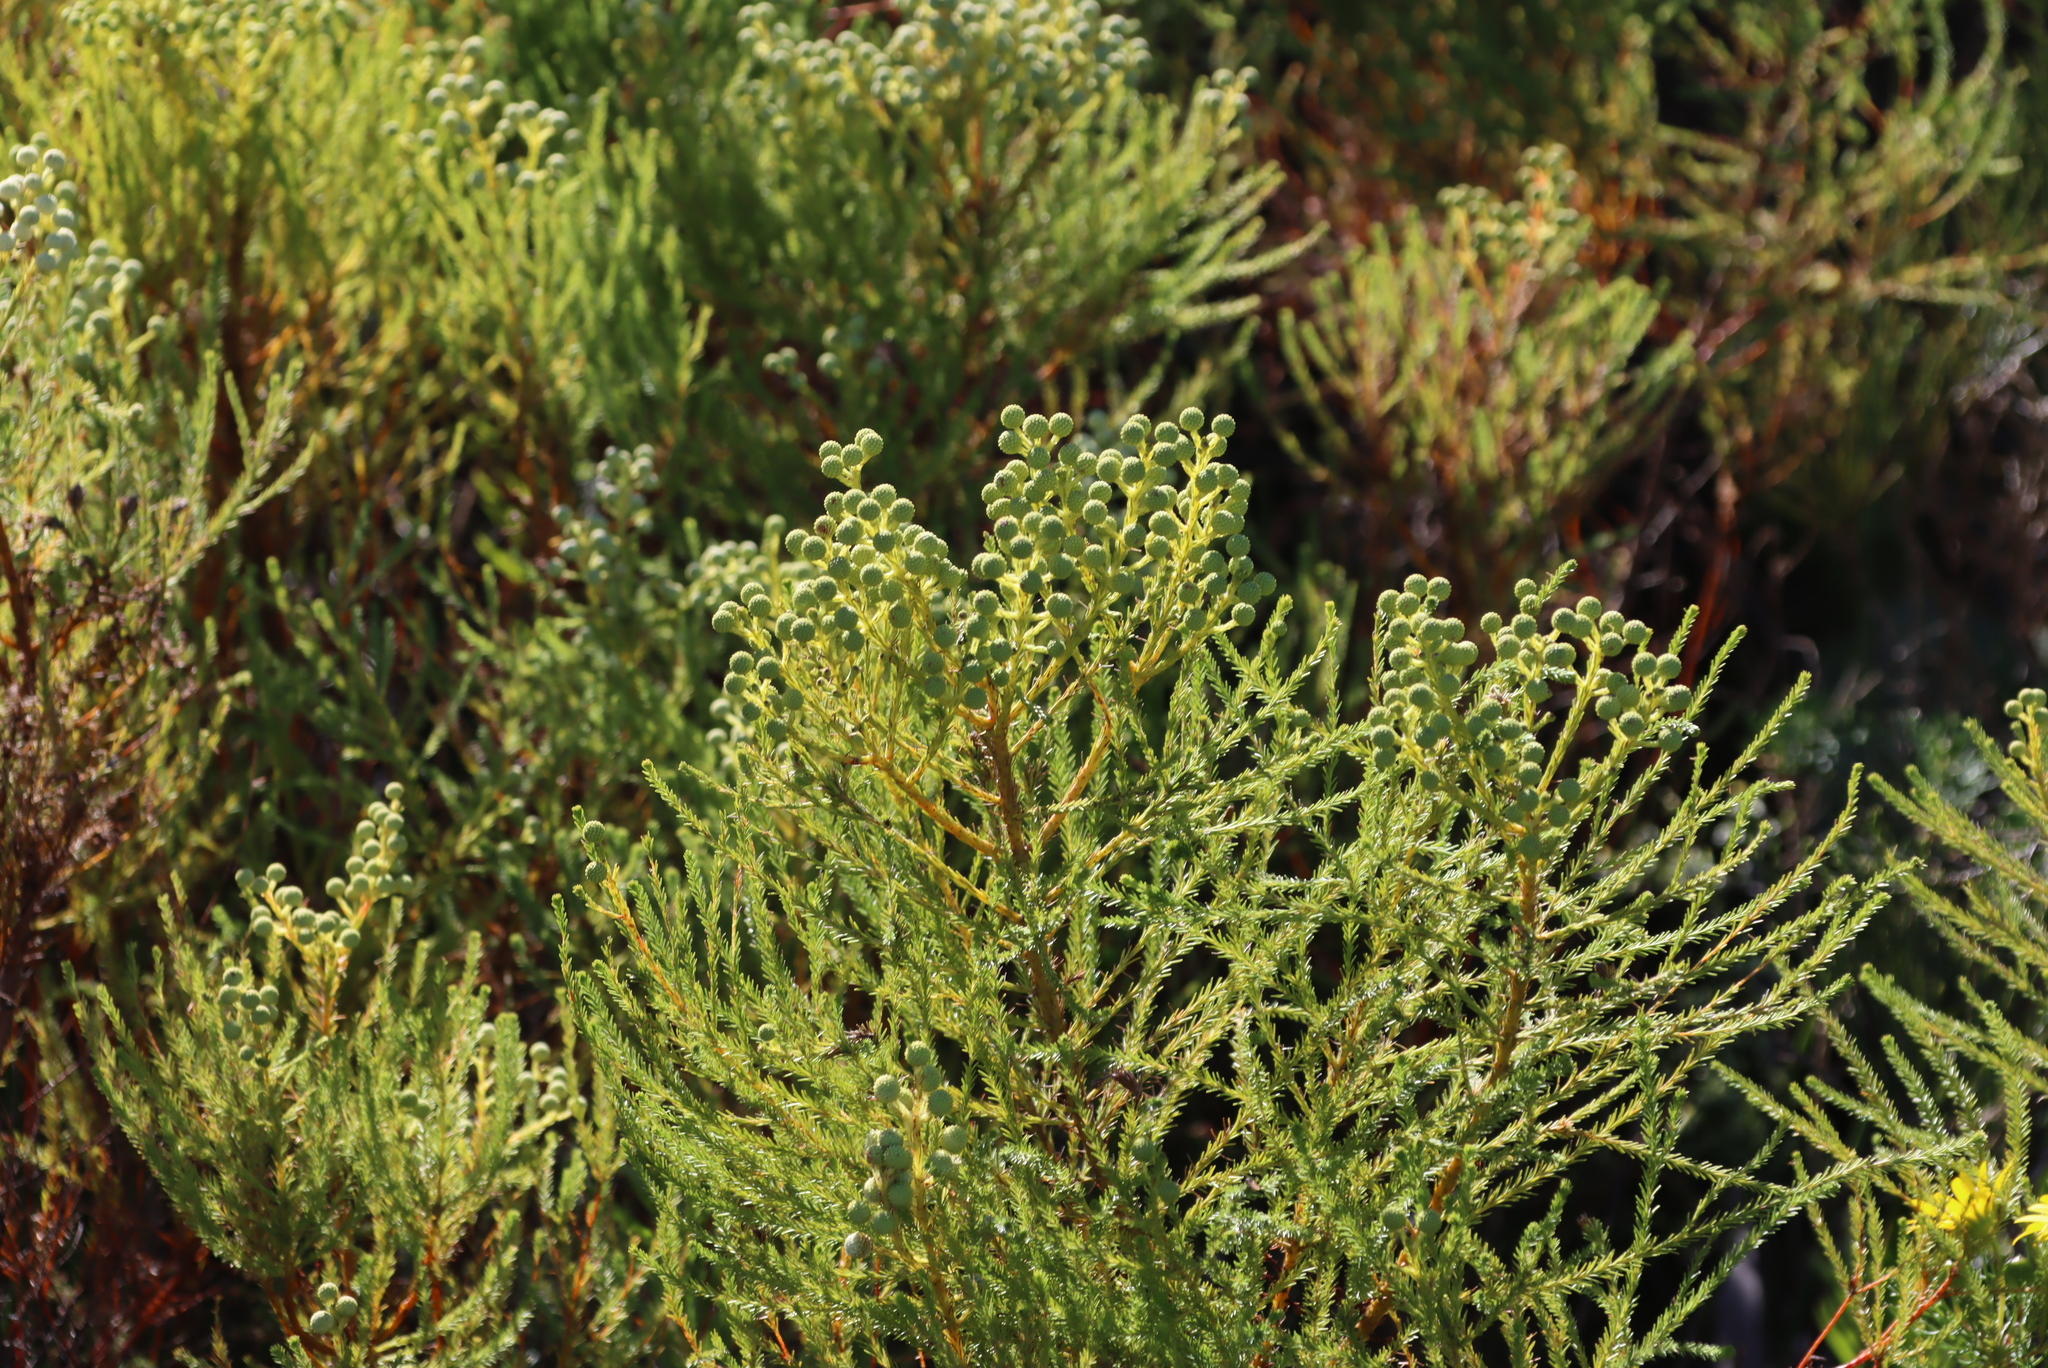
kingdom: Plantae
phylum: Tracheophyta
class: Magnoliopsida
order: Bruniales
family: Bruniaceae
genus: Berzelia
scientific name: Berzelia lanuginosa
